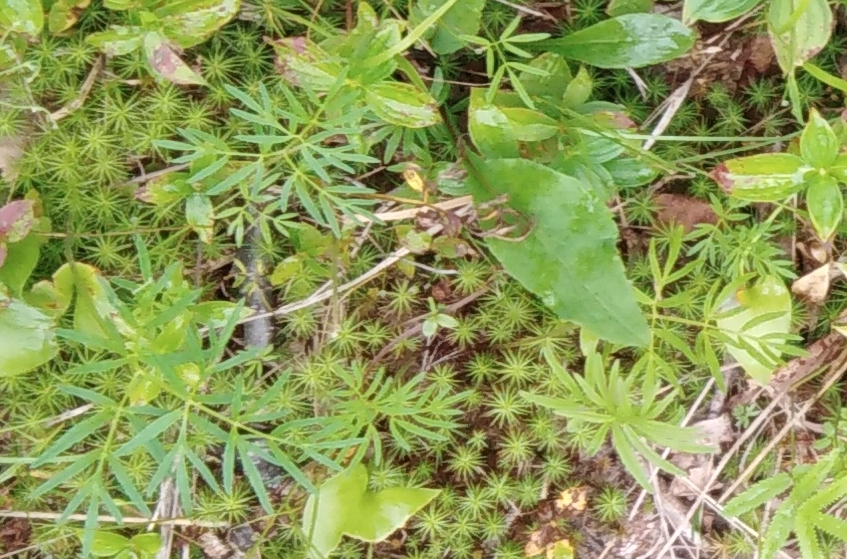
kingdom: Plantae
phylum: Tracheophyta
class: Magnoliopsida
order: Apiales
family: Apiaceae
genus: Ostericum
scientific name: Ostericum maximowiczii
